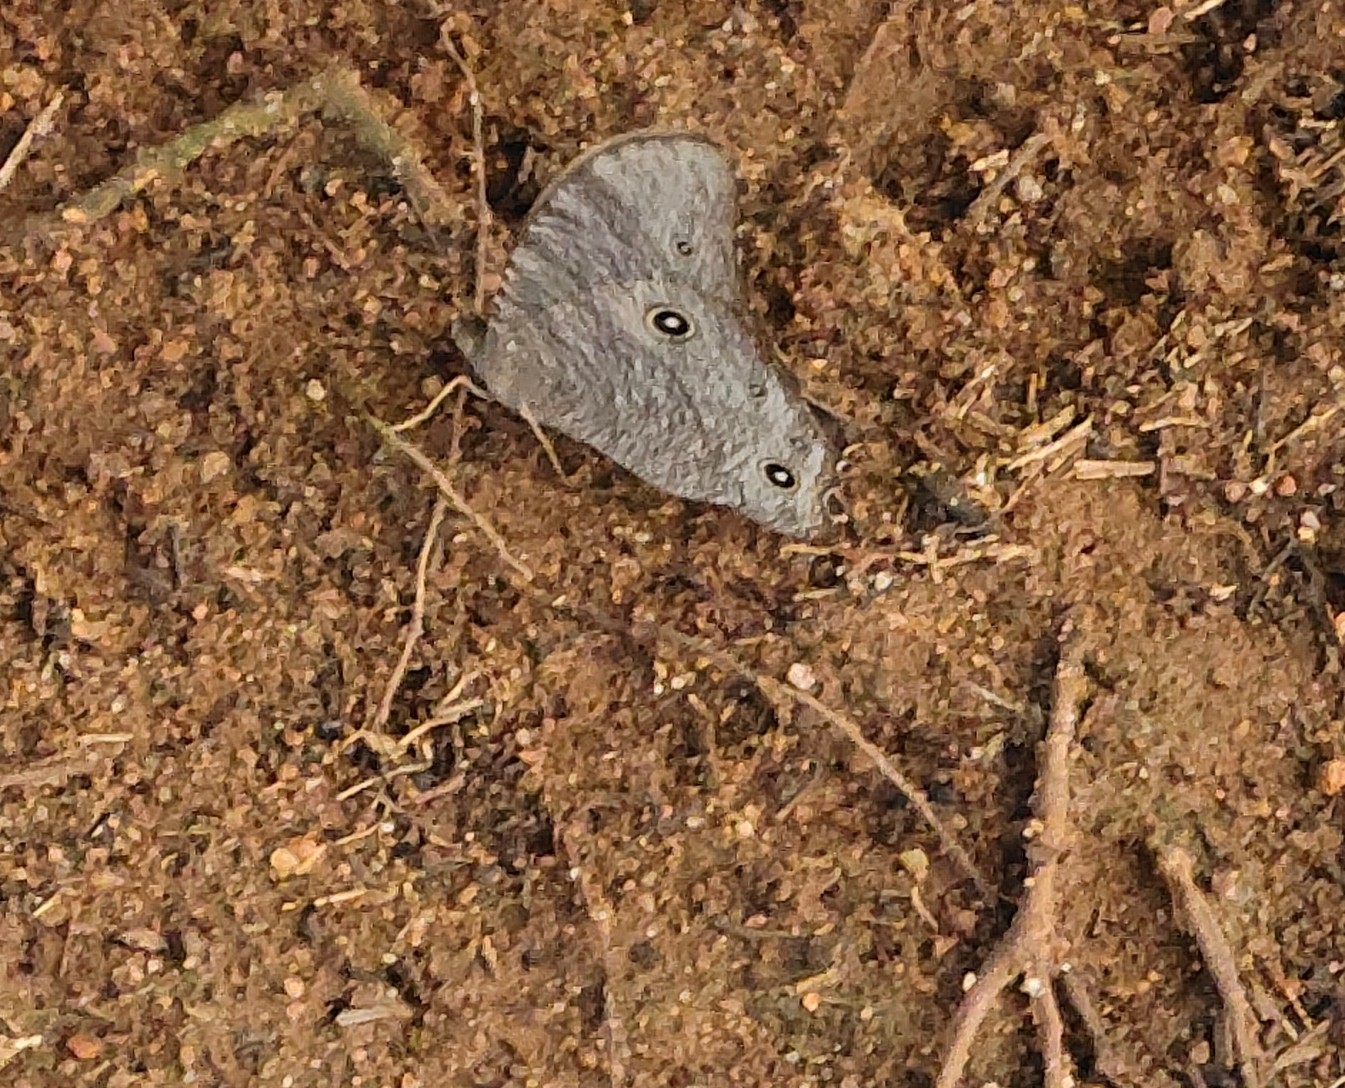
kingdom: Animalia
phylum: Arthropoda
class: Insecta
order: Lepidoptera
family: Nymphalidae
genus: Melanitis
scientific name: Melanitis leda
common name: Twilight brown
